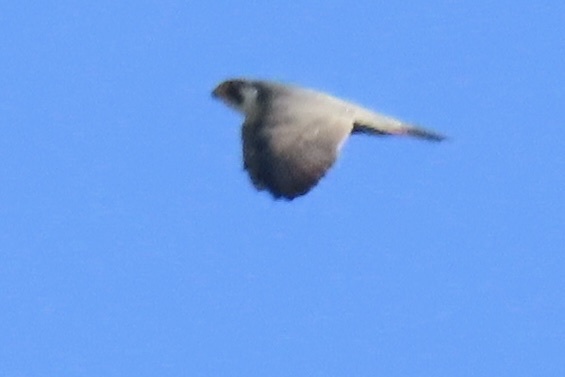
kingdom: Animalia
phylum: Chordata
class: Aves
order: Falconiformes
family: Falconidae
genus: Falco
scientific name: Falco peregrinus
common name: Peregrine falcon
